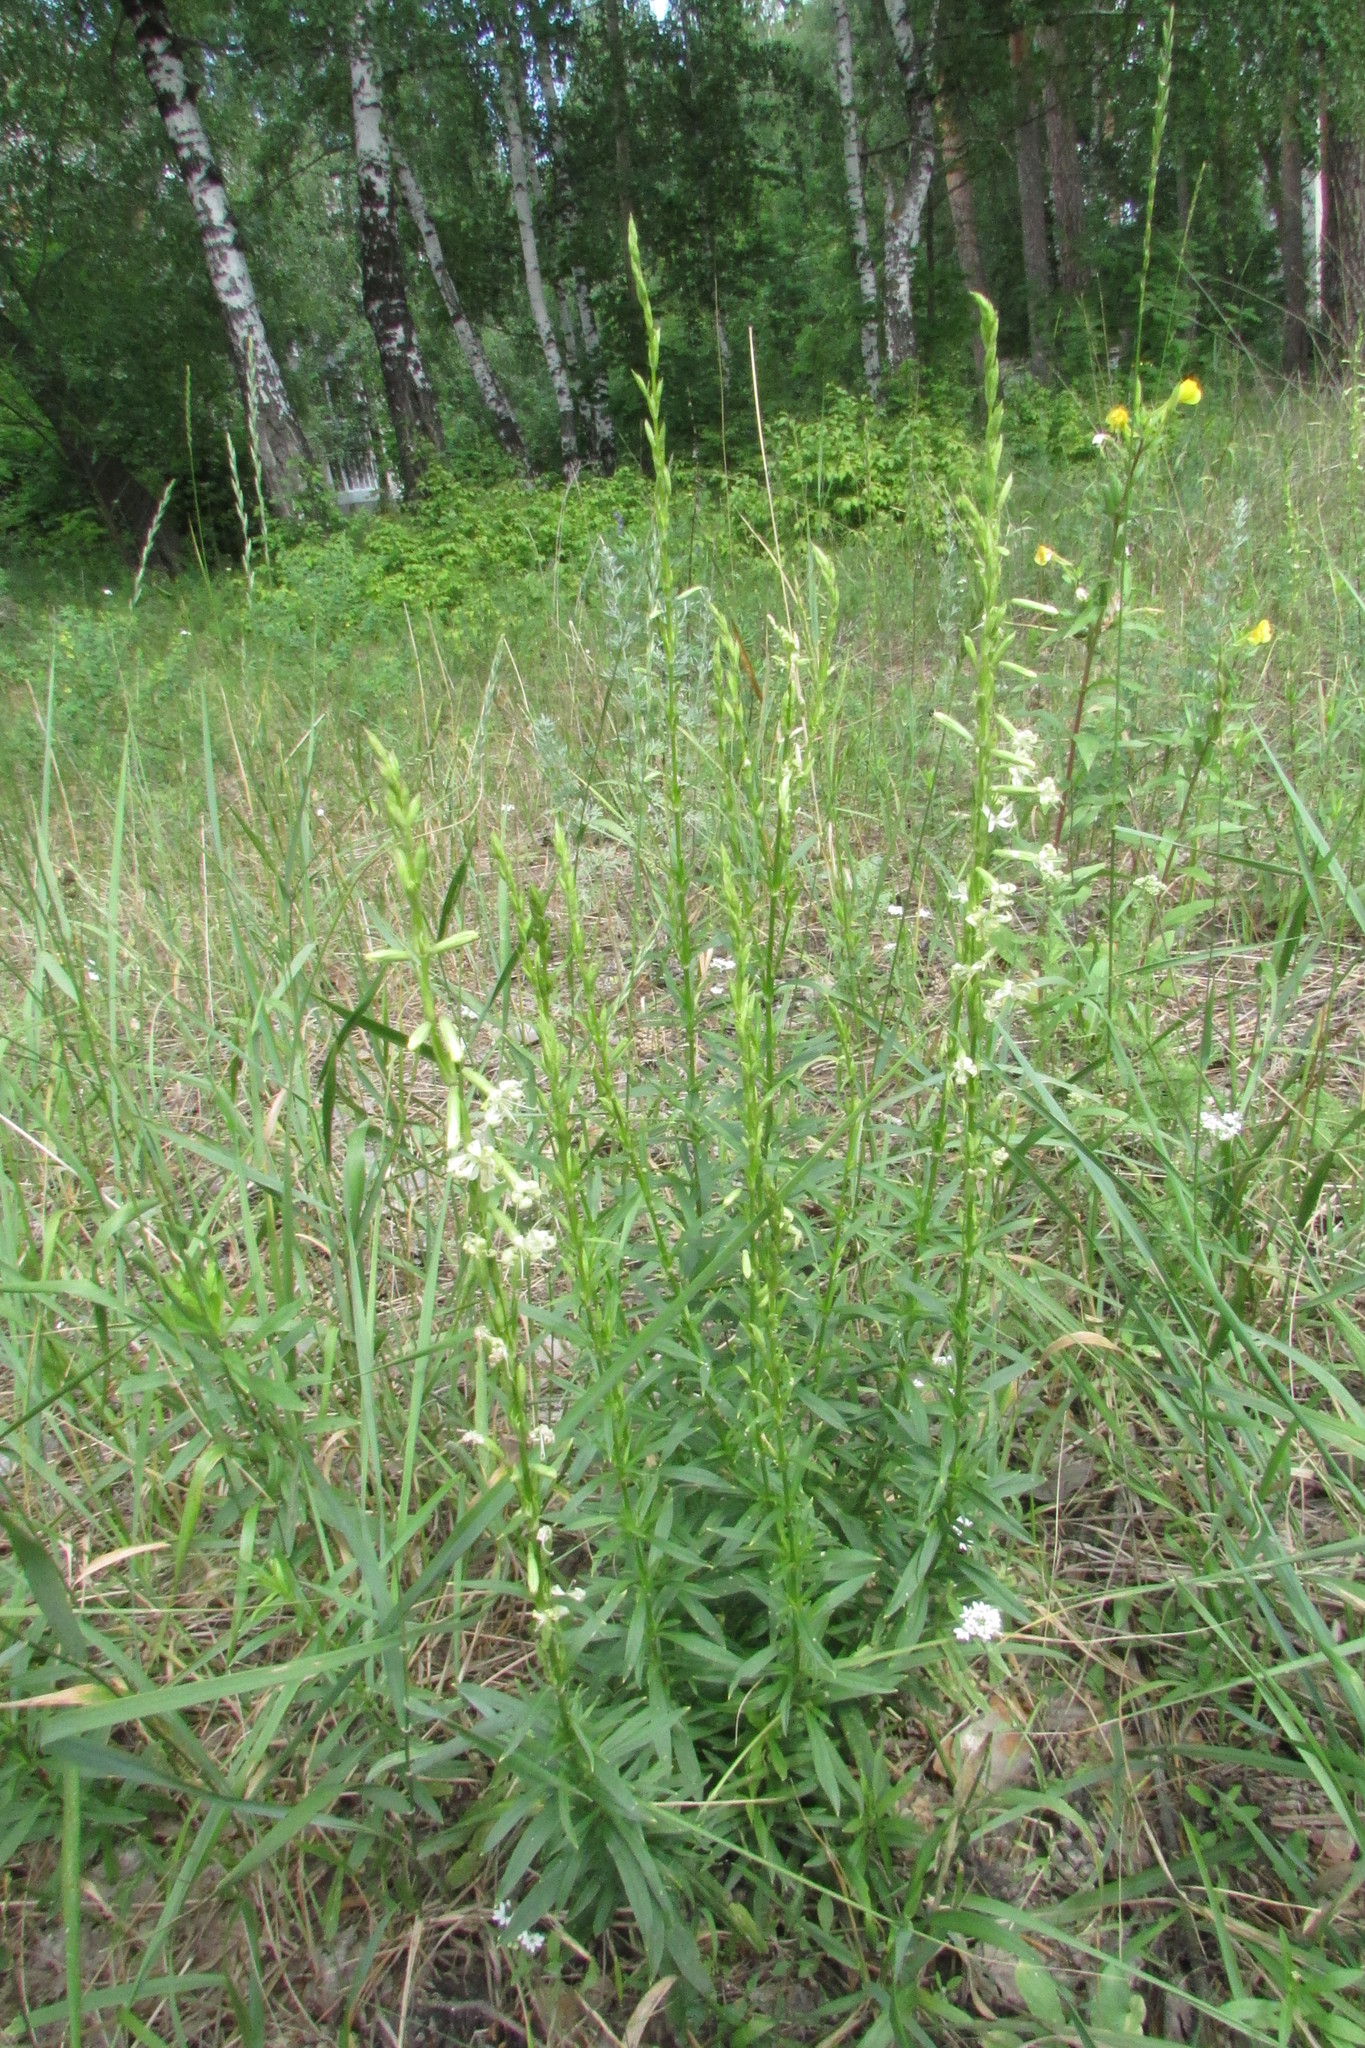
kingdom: Plantae
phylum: Tracheophyta
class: Magnoliopsida
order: Caryophyllales
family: Caryophyllaceae
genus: Silene
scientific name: Silene tatarica
